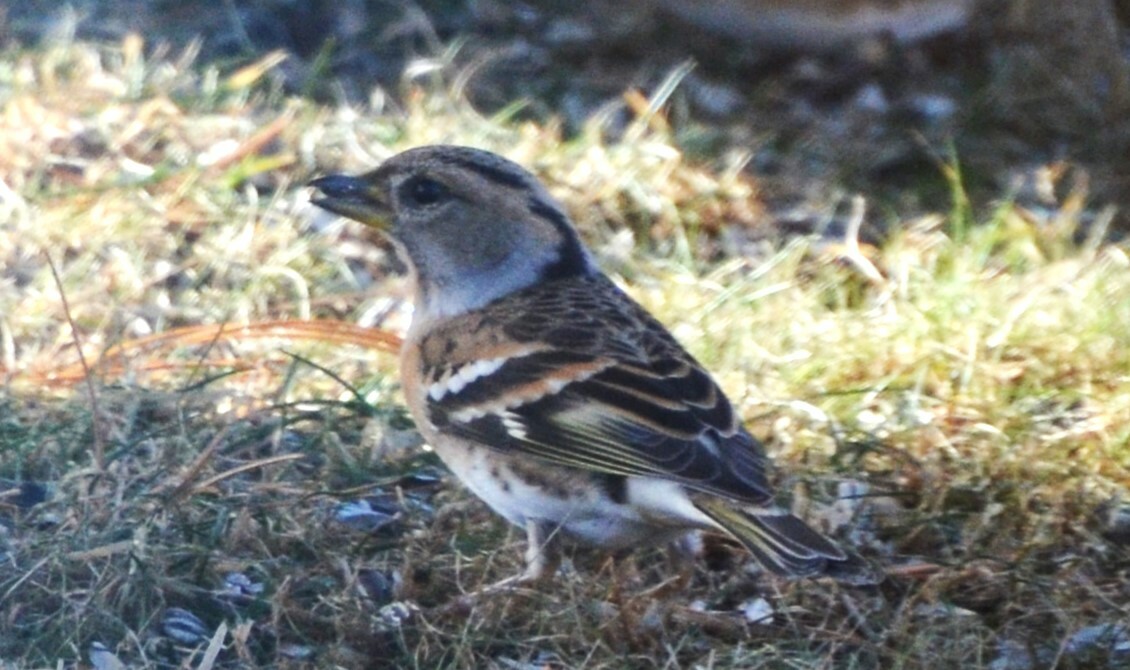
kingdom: Animalia
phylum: Chordata
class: Aves
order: Passeriformes
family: Fringillidae
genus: Fringilla
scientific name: Fringilla montifringilla
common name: Brambling
